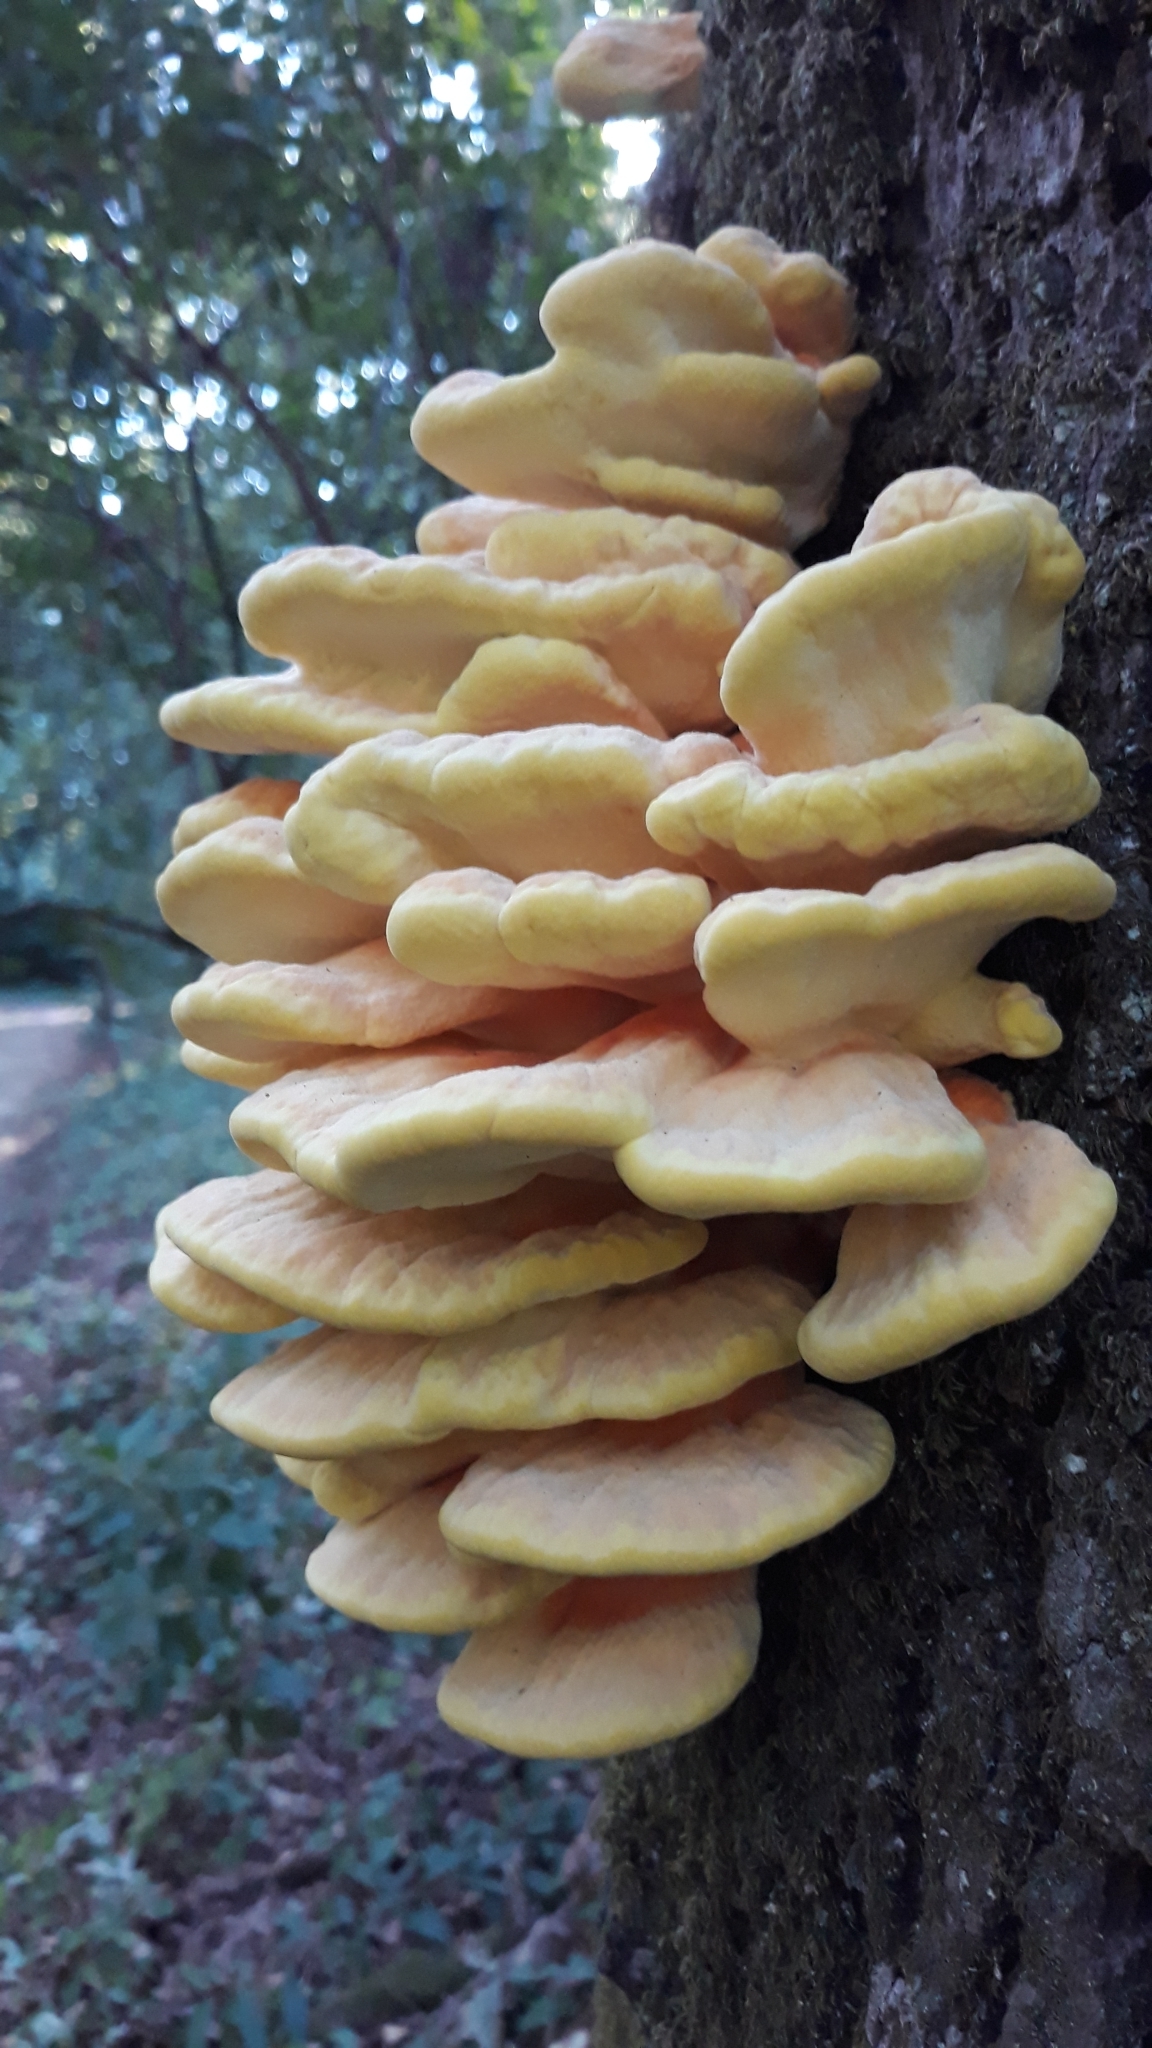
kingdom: Fungi
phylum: Basidiomycota
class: Agaricomycetes
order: Polyporales
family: Laetiporaceae
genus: Laetiporus
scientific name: Laetiporus sulphureus
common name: Chicken of the woods
